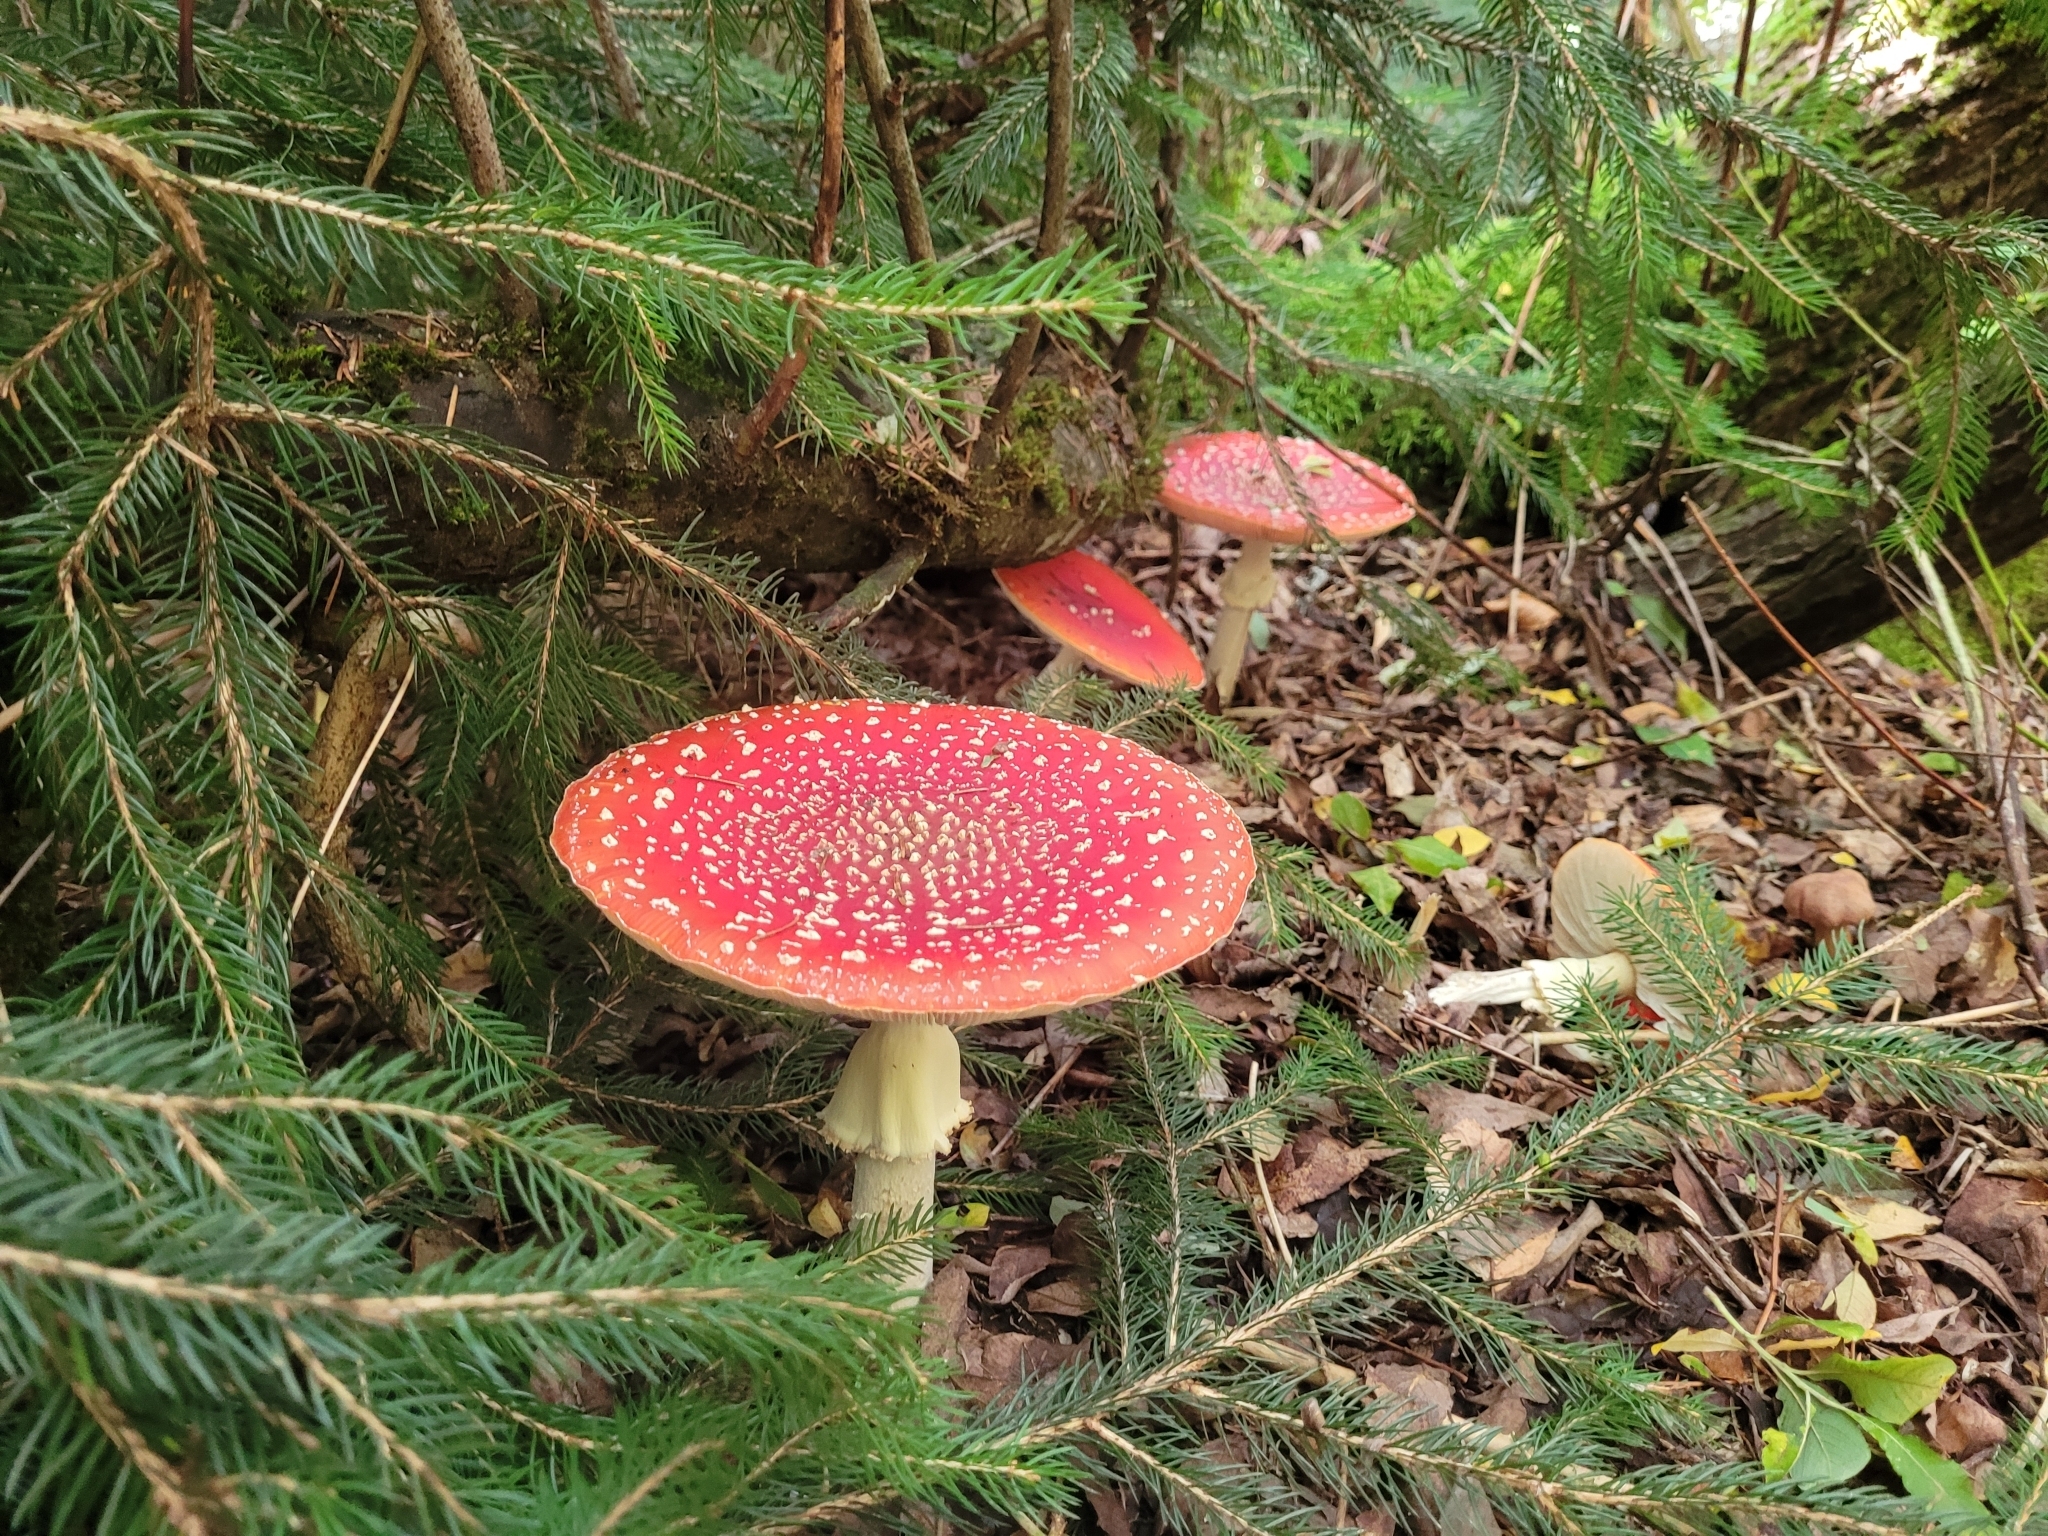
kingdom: Fungi
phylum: Basidiomycota
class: Agaricomycetes
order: Agaricales
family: Amanitaceae
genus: Amanita
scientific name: Amanita muscaria
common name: Fly agaric
